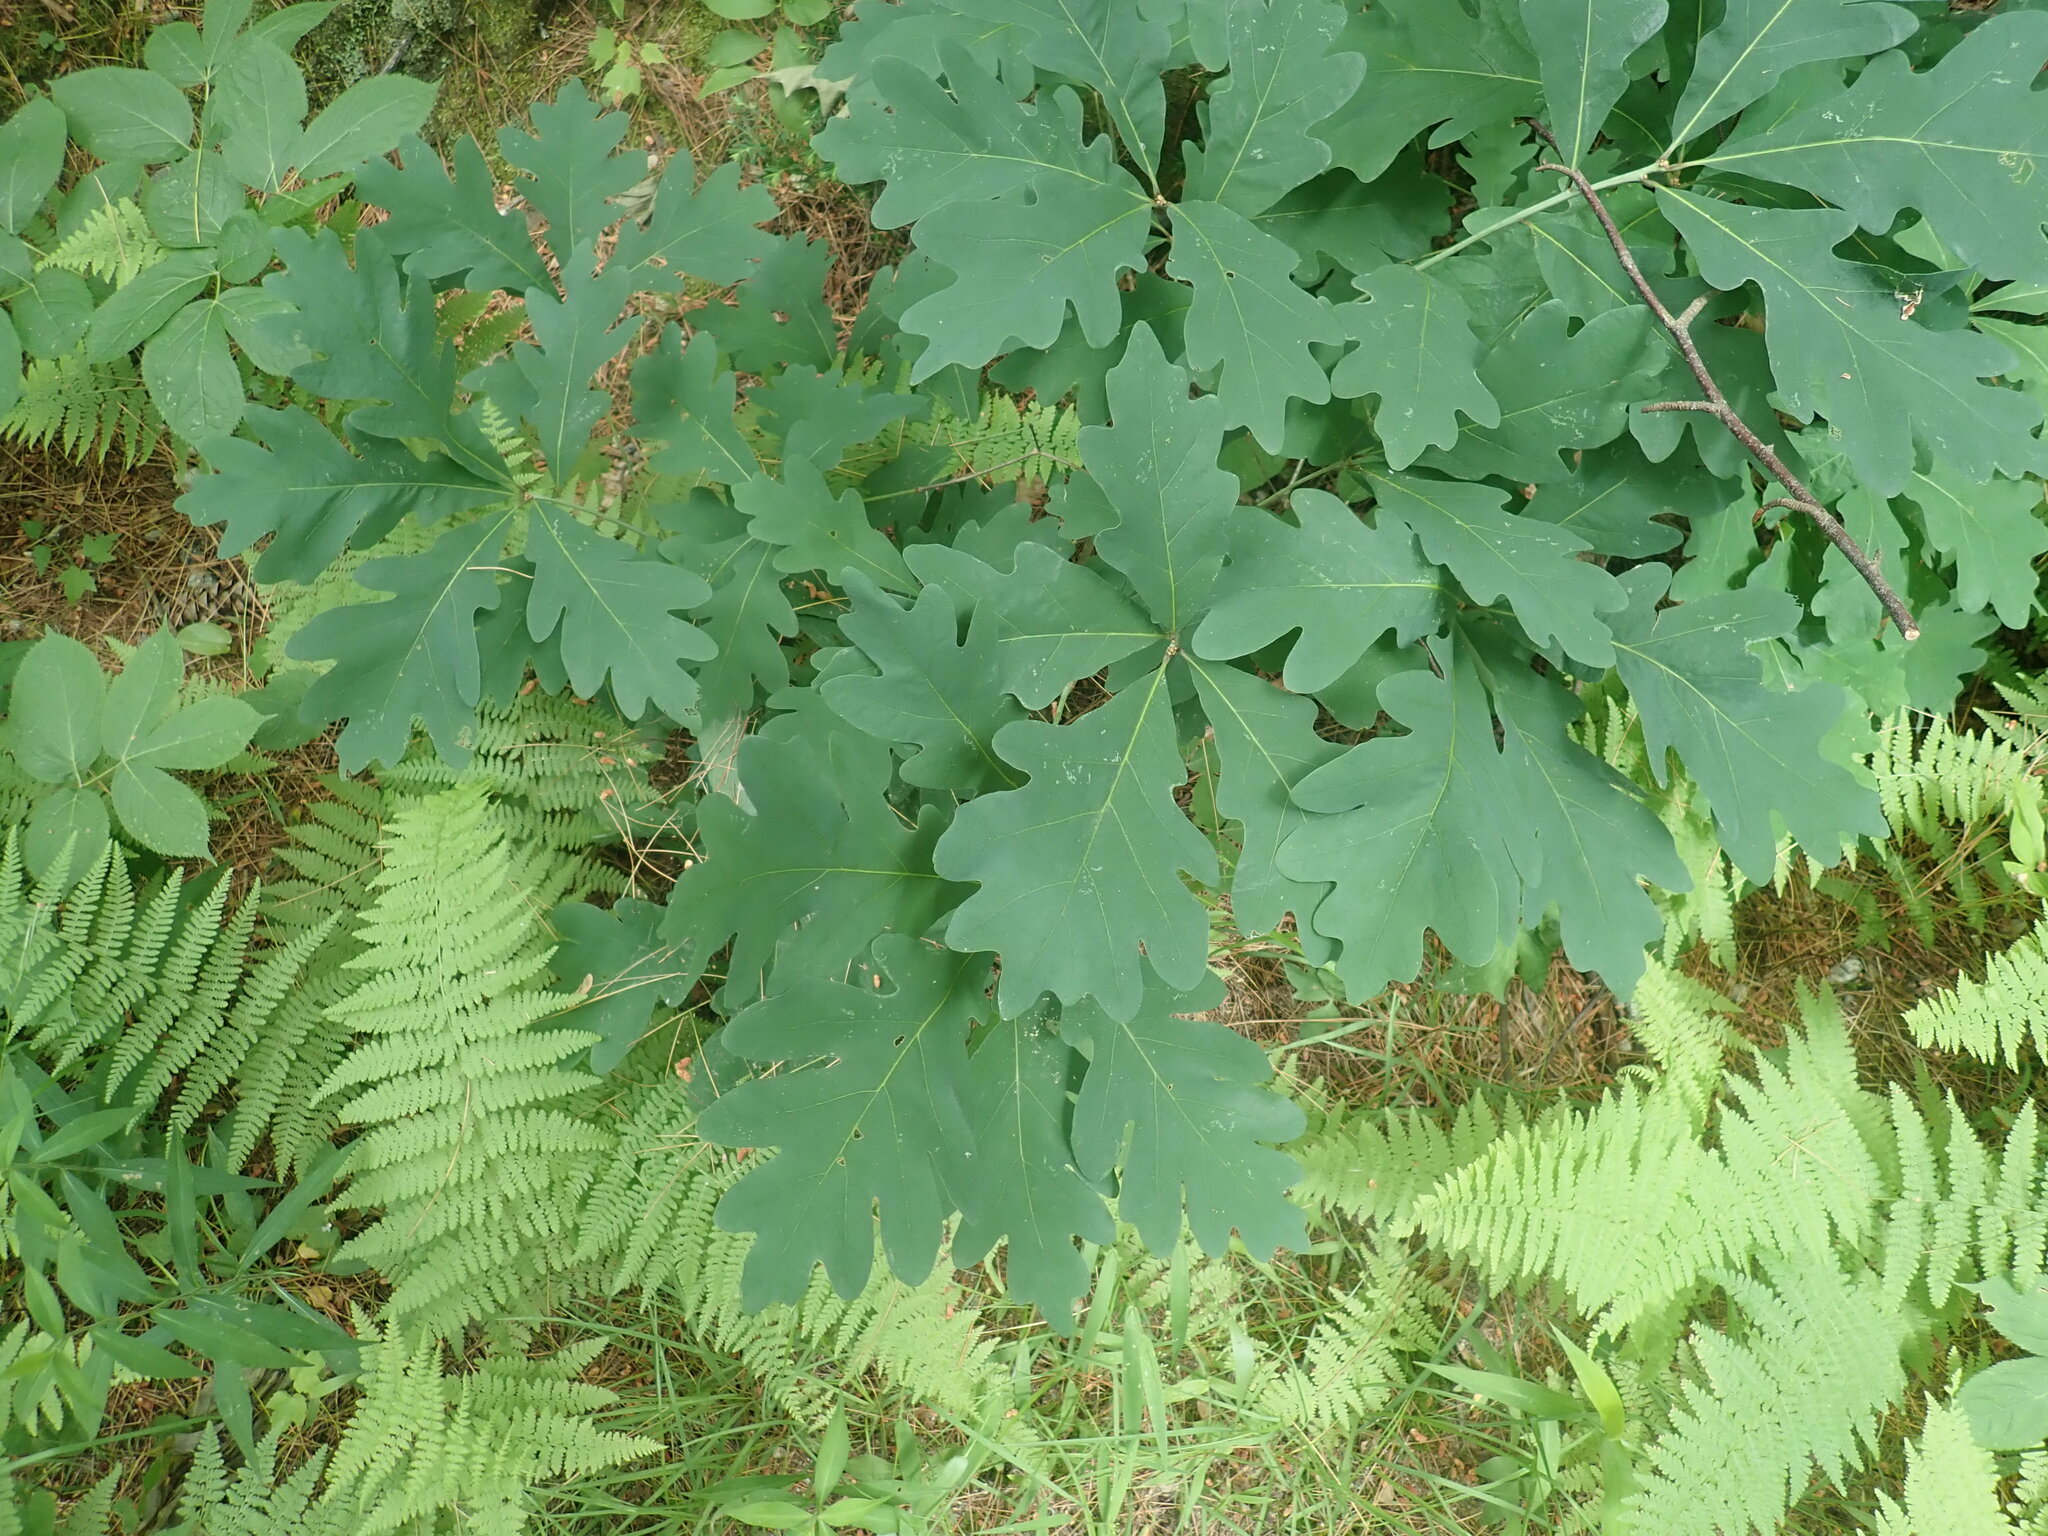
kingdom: Plantae
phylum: Tracheophyta
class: Magnoliopsida
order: Fagales
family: Fagaceae
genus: Quercus
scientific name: Quercus alba
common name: White oak
